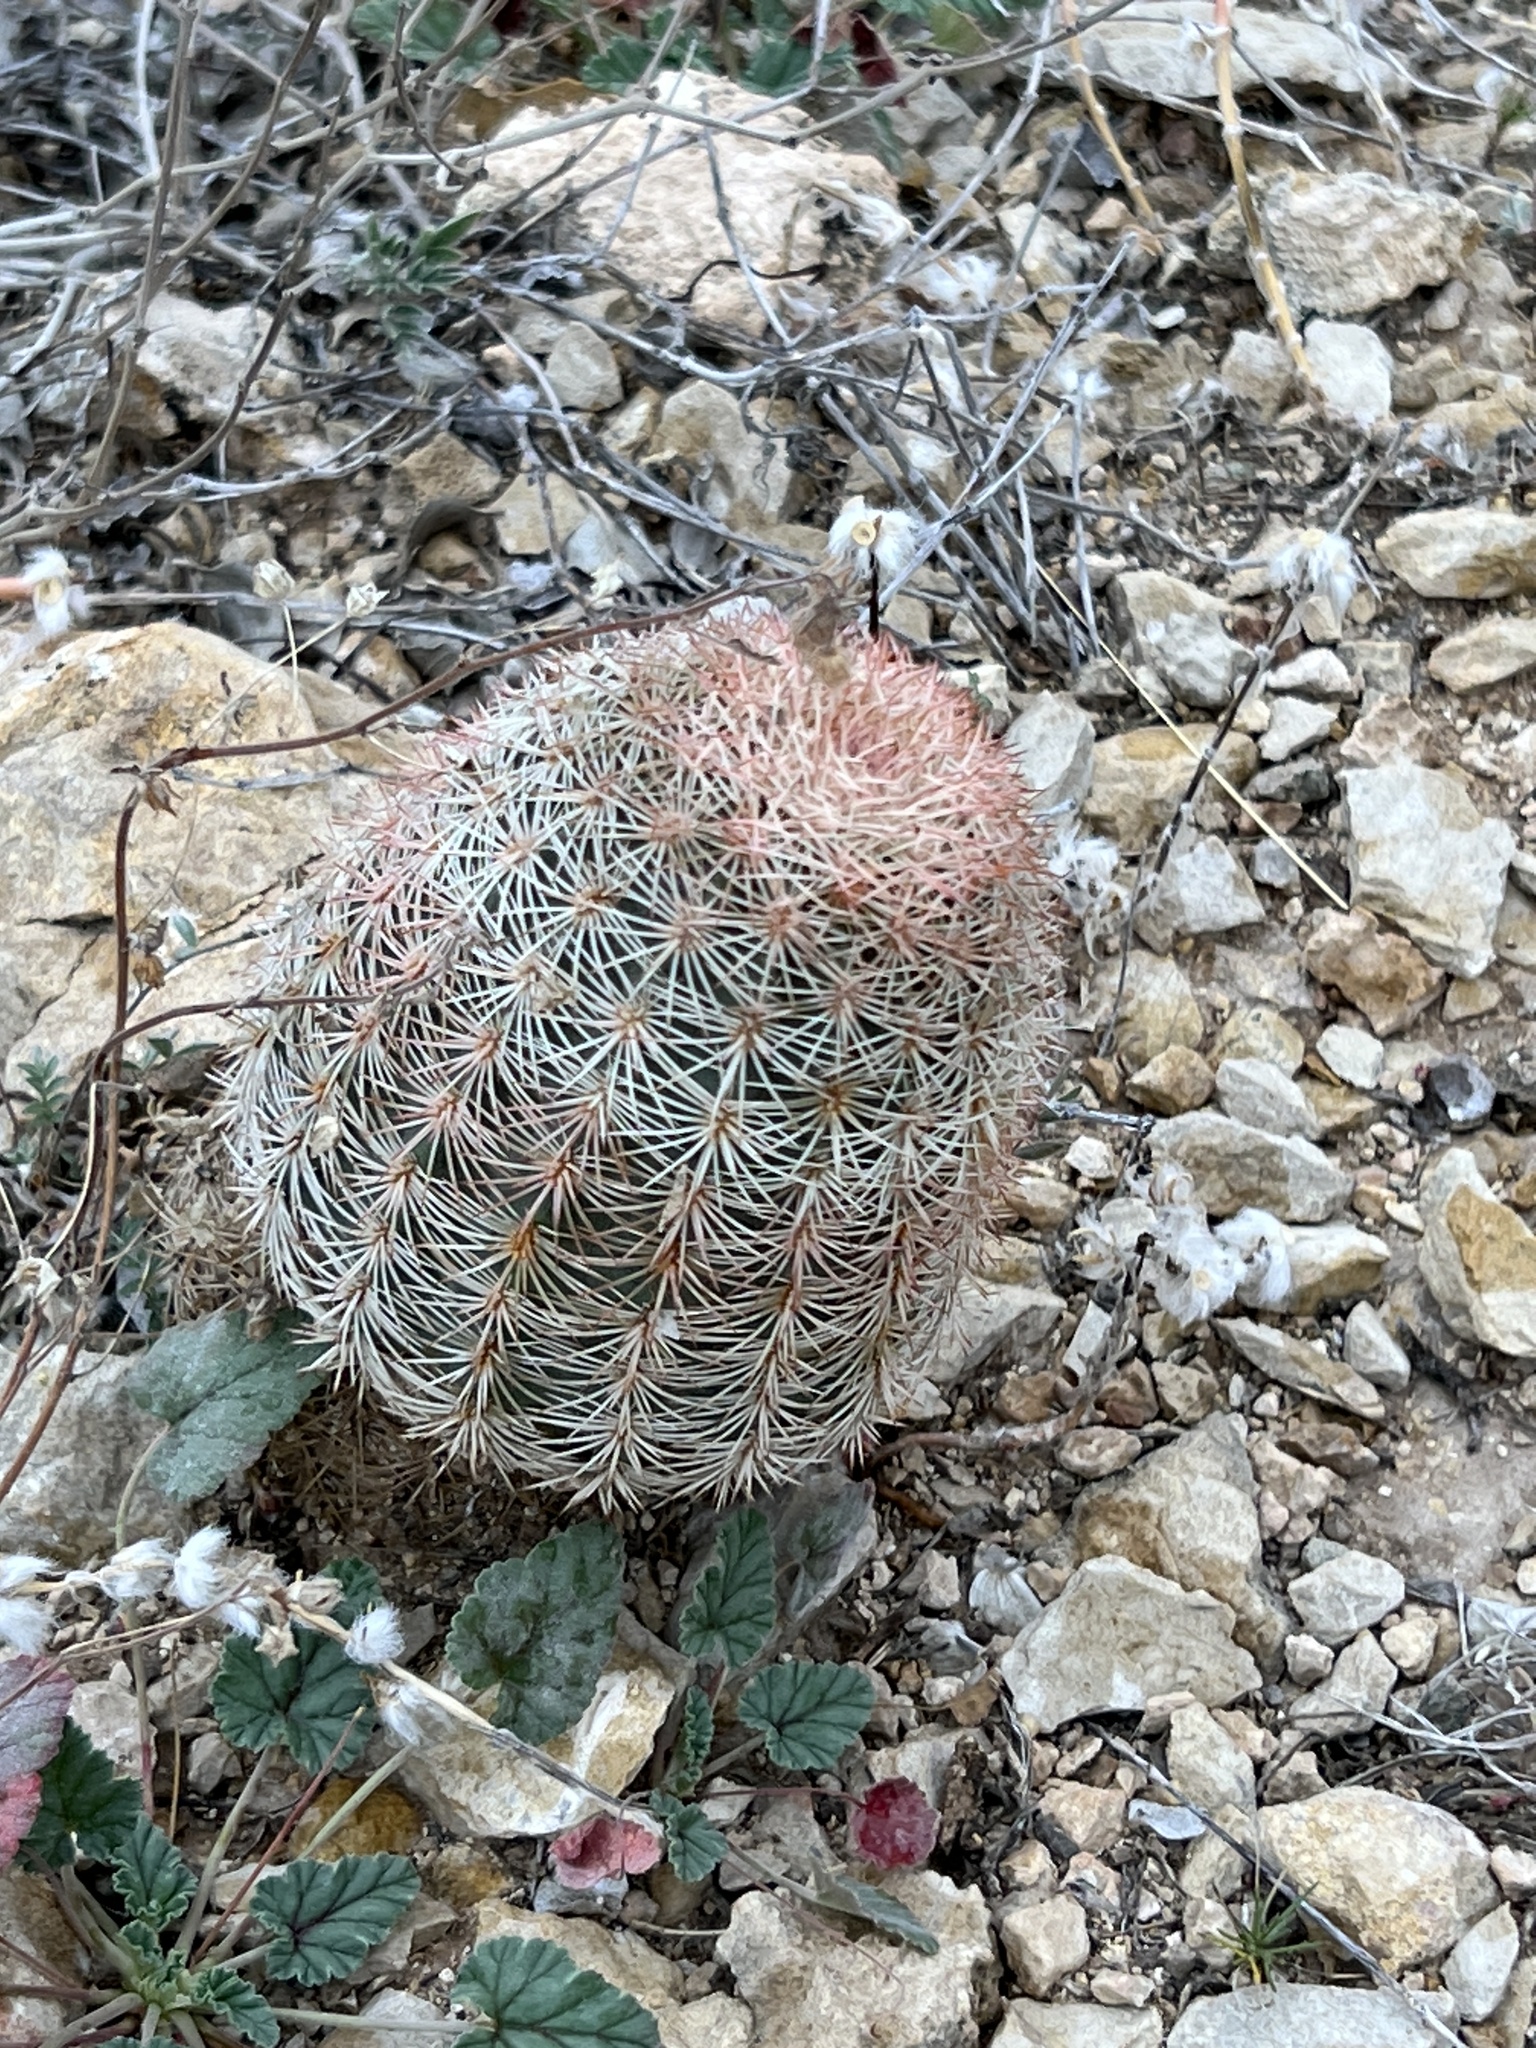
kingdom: Plantae
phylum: Tracheophyta
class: Magnoliopsida
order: Caryophyllales
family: Cactaceae
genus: Echinocereus
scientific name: Echinocereus dasyacanthus
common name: Spiny hedgehog cactus
